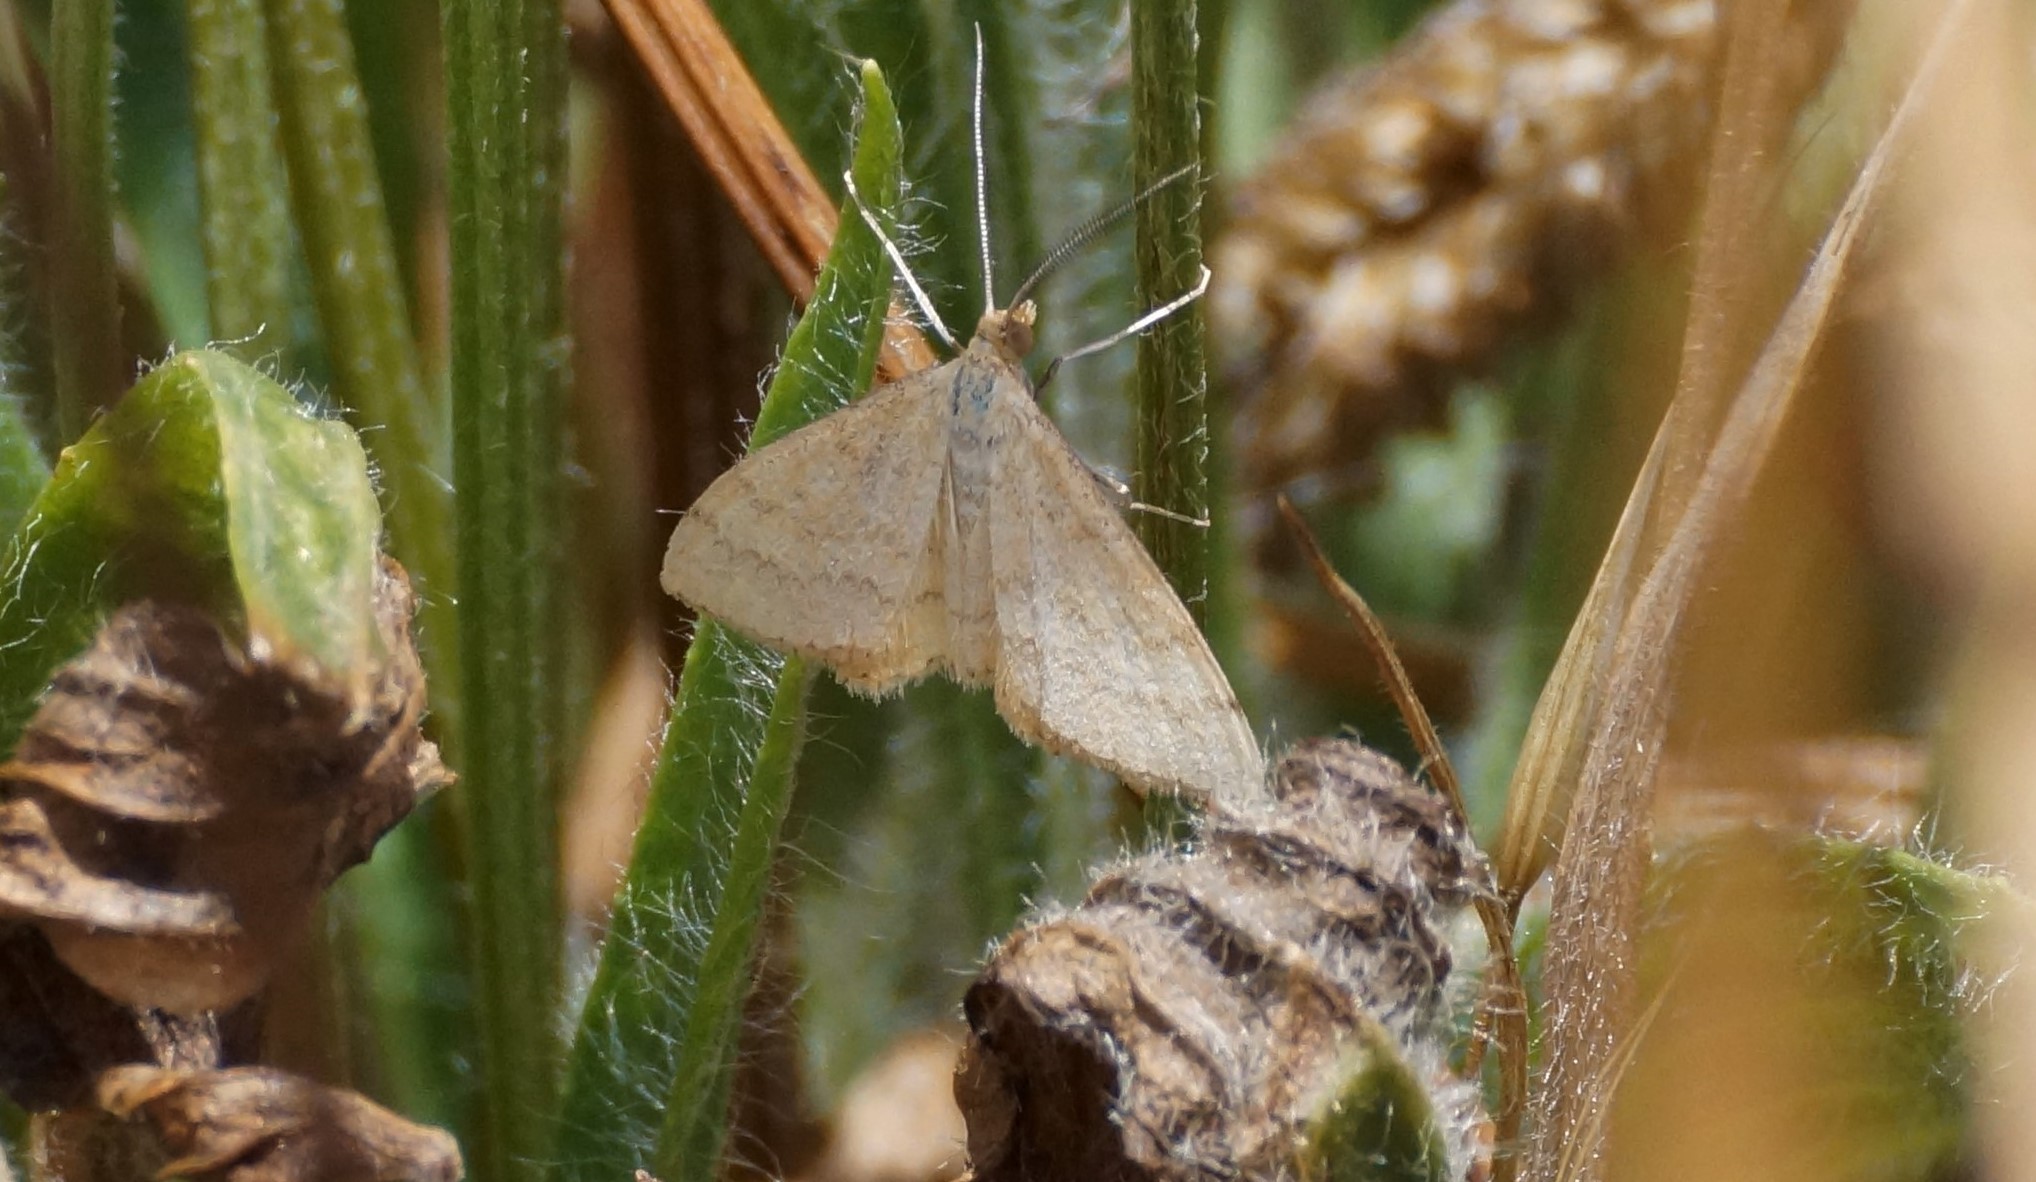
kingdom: Animalia
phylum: Arthropoda
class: Insecta
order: Lepidoptera
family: Geometridae
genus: Scopula
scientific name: Scopula rubraria
